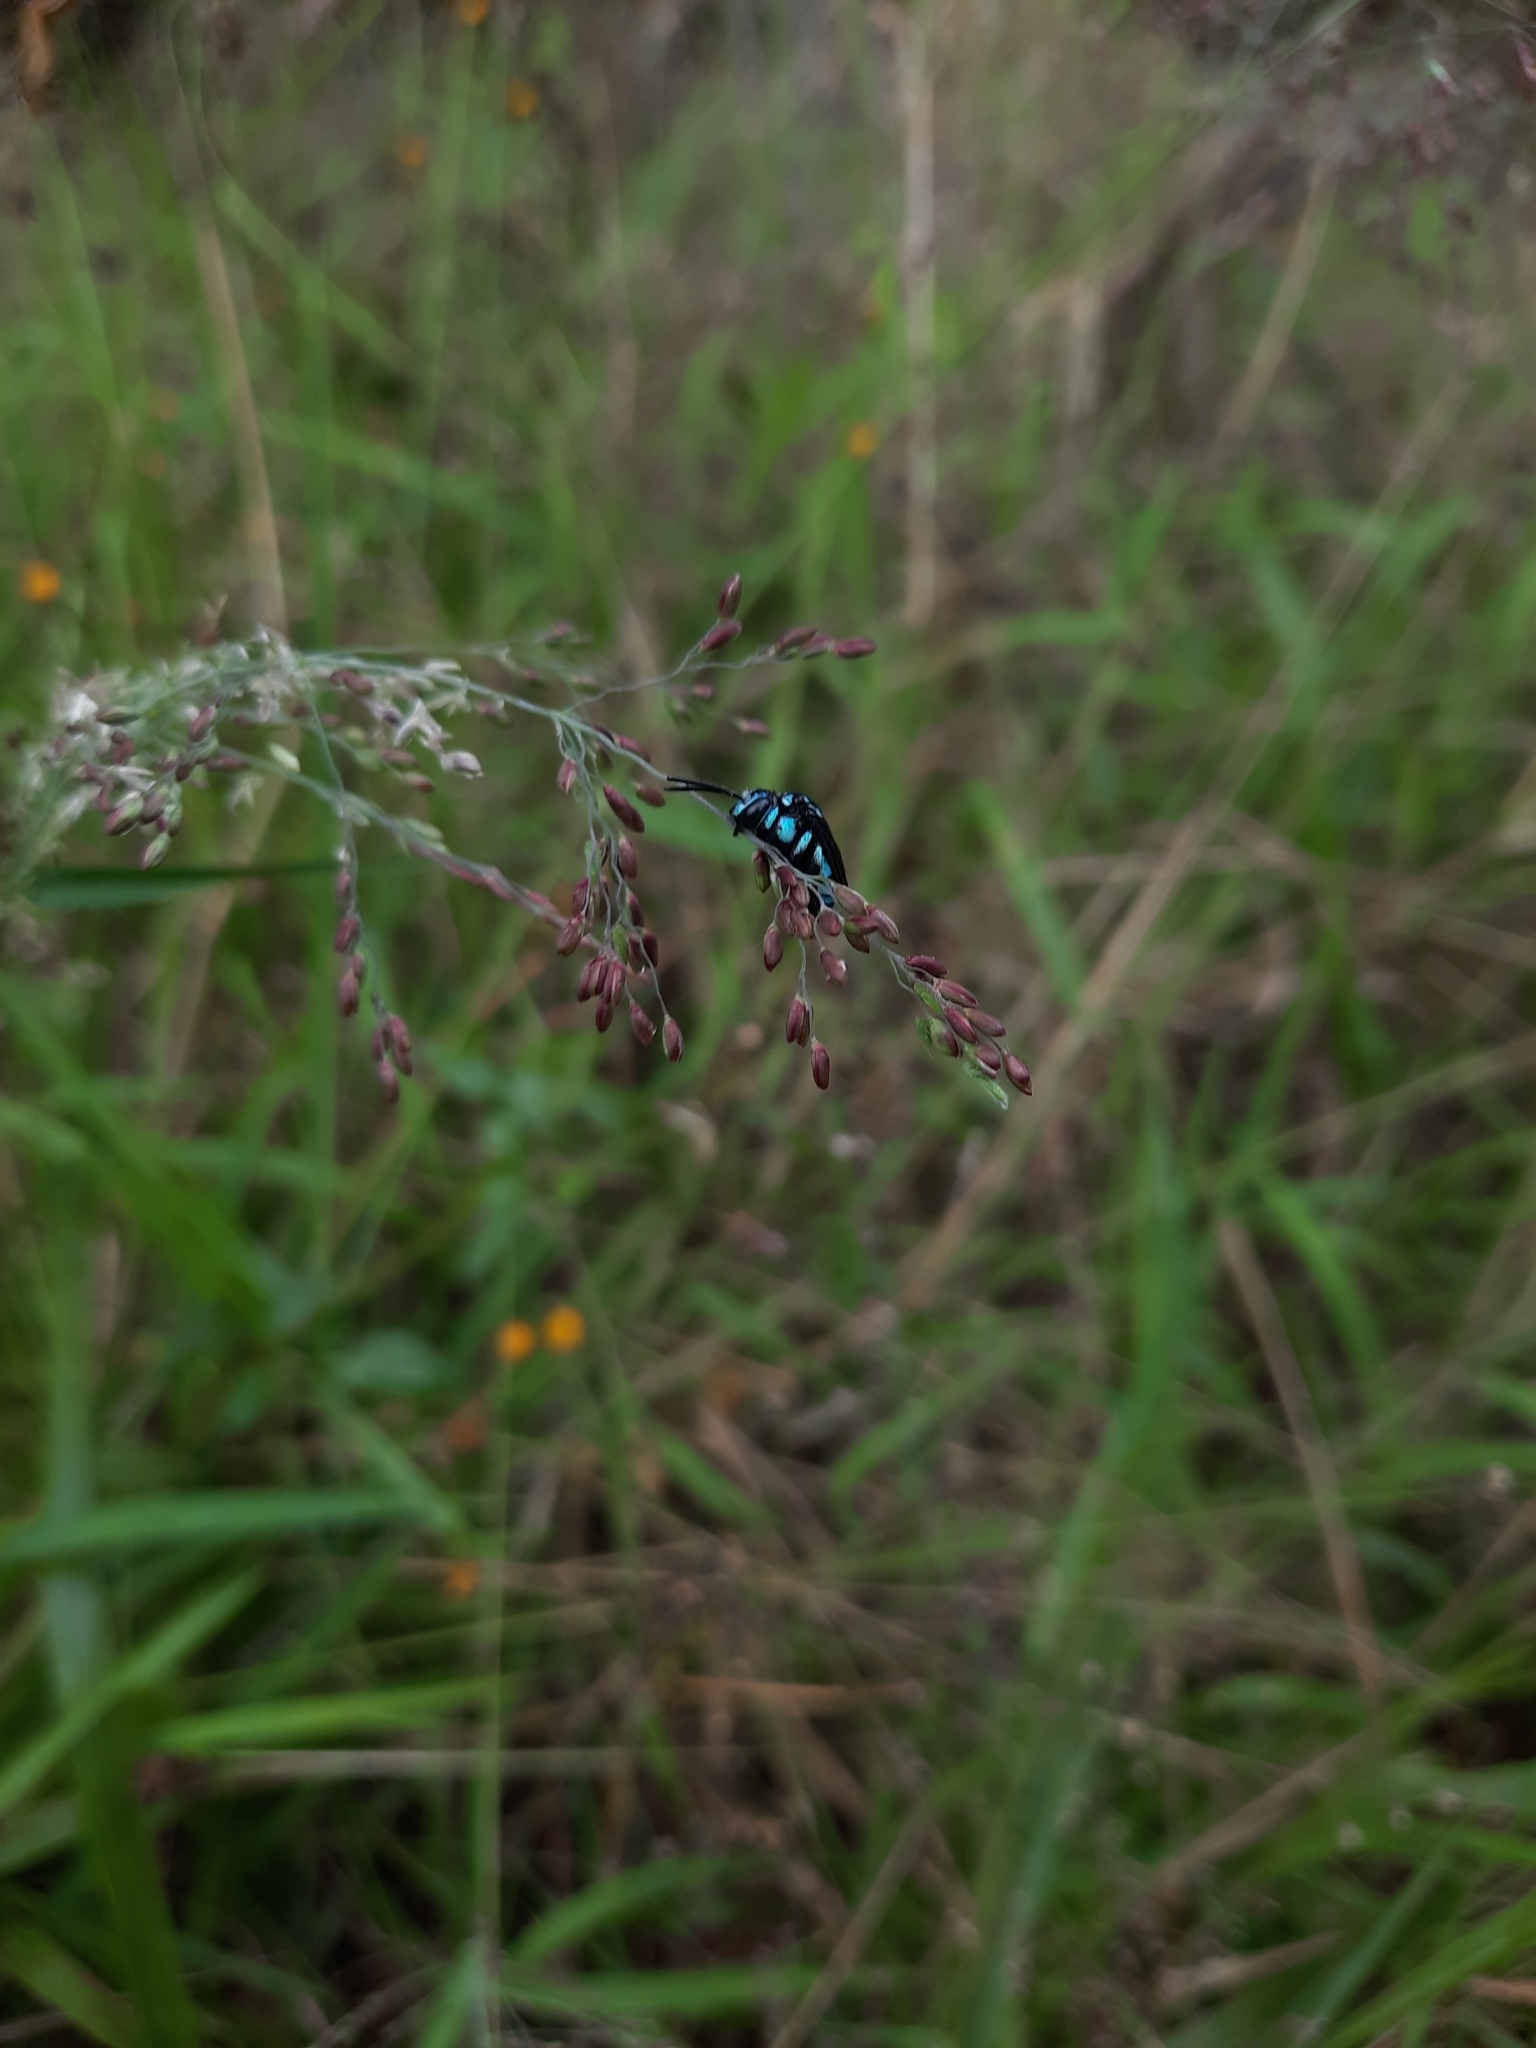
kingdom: Animalia
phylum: Arthropoda
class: Insecta
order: Hymenoptera
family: Apidae
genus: Thyreus
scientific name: Thyreus nitidulus
